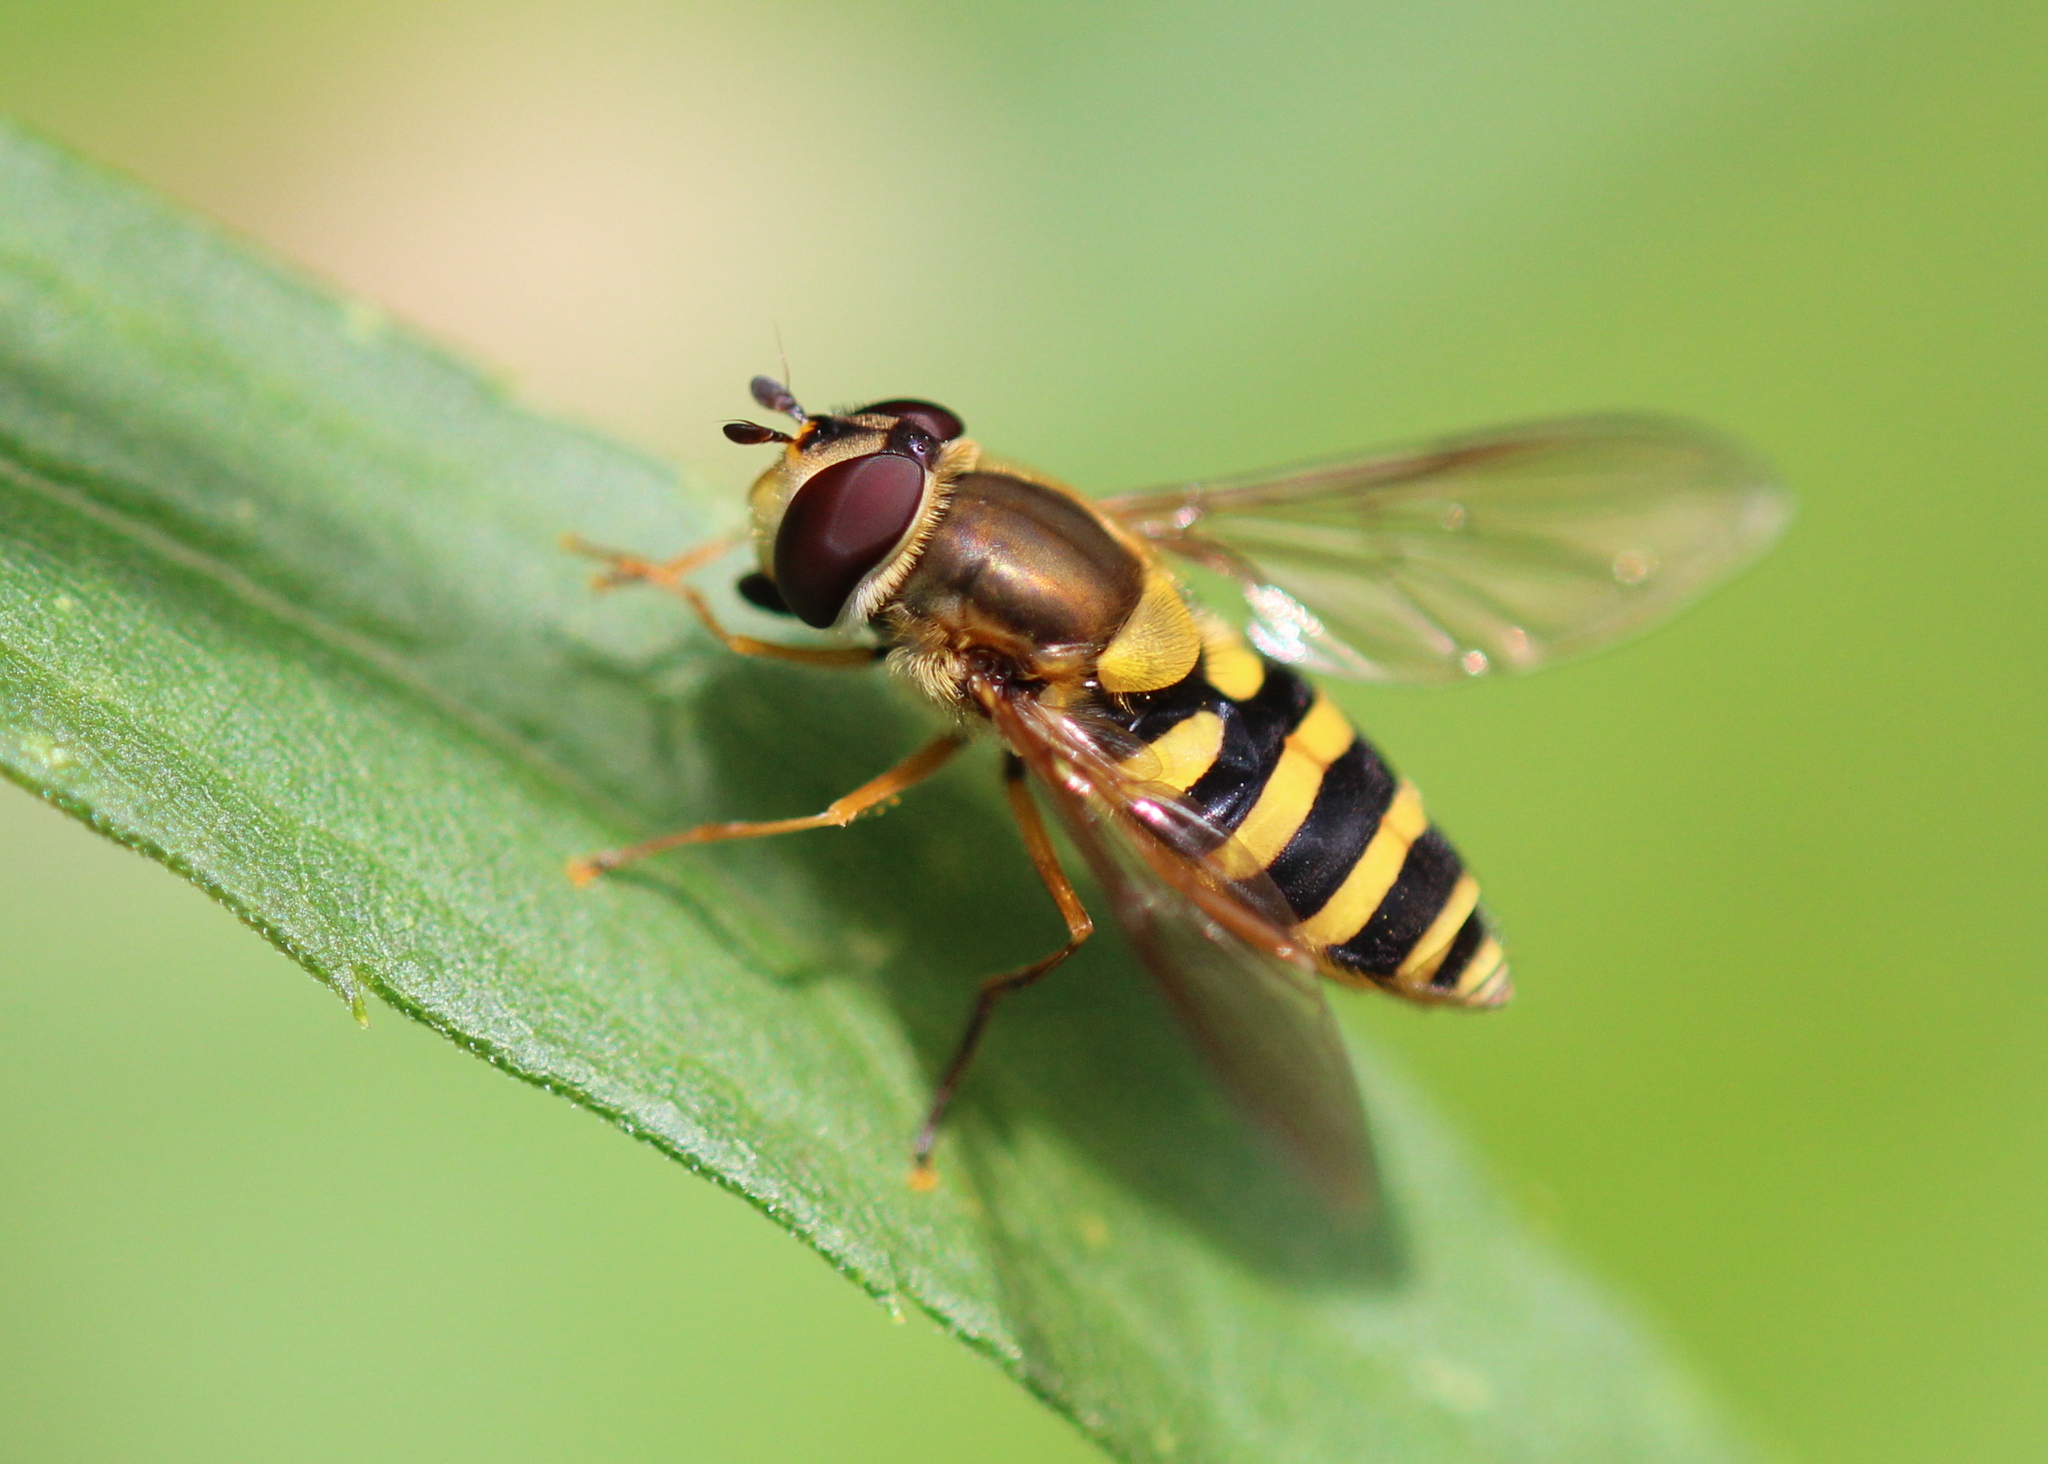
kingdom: Animalia
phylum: Arthropoda
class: Insecta
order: Diptera
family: Syrphidae
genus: Syrphus
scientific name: Syrphus ribesii
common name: Common flower fly
